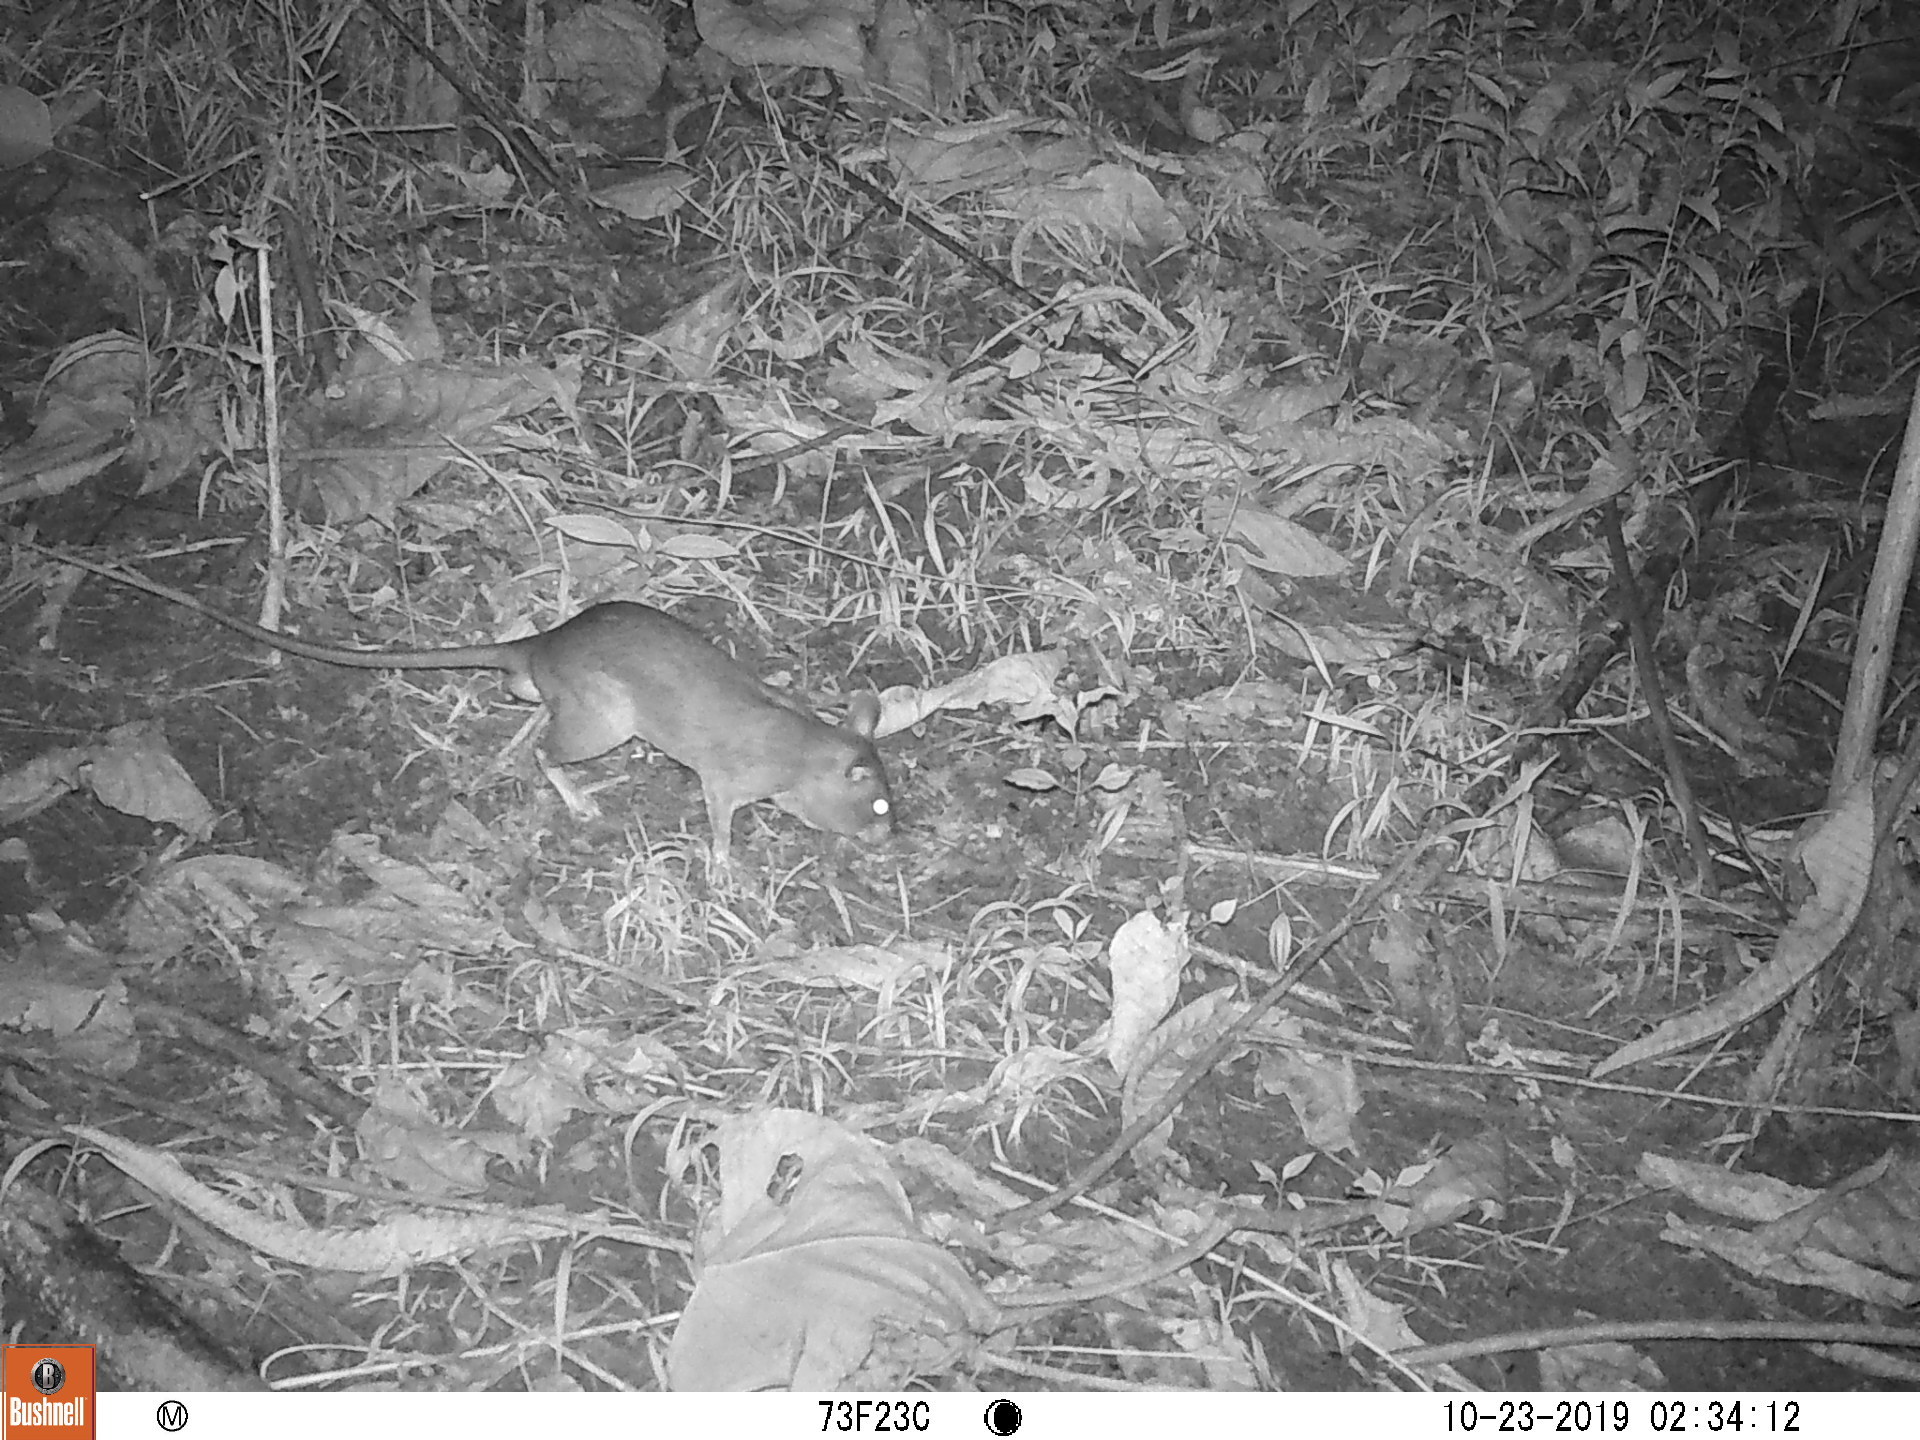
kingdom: Animalia
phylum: Chordata
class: Mammalia
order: Rodentia
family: Nesomyidae
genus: Cricetomys
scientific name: Cricetomys gambianus
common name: Northern giant pouched rat
